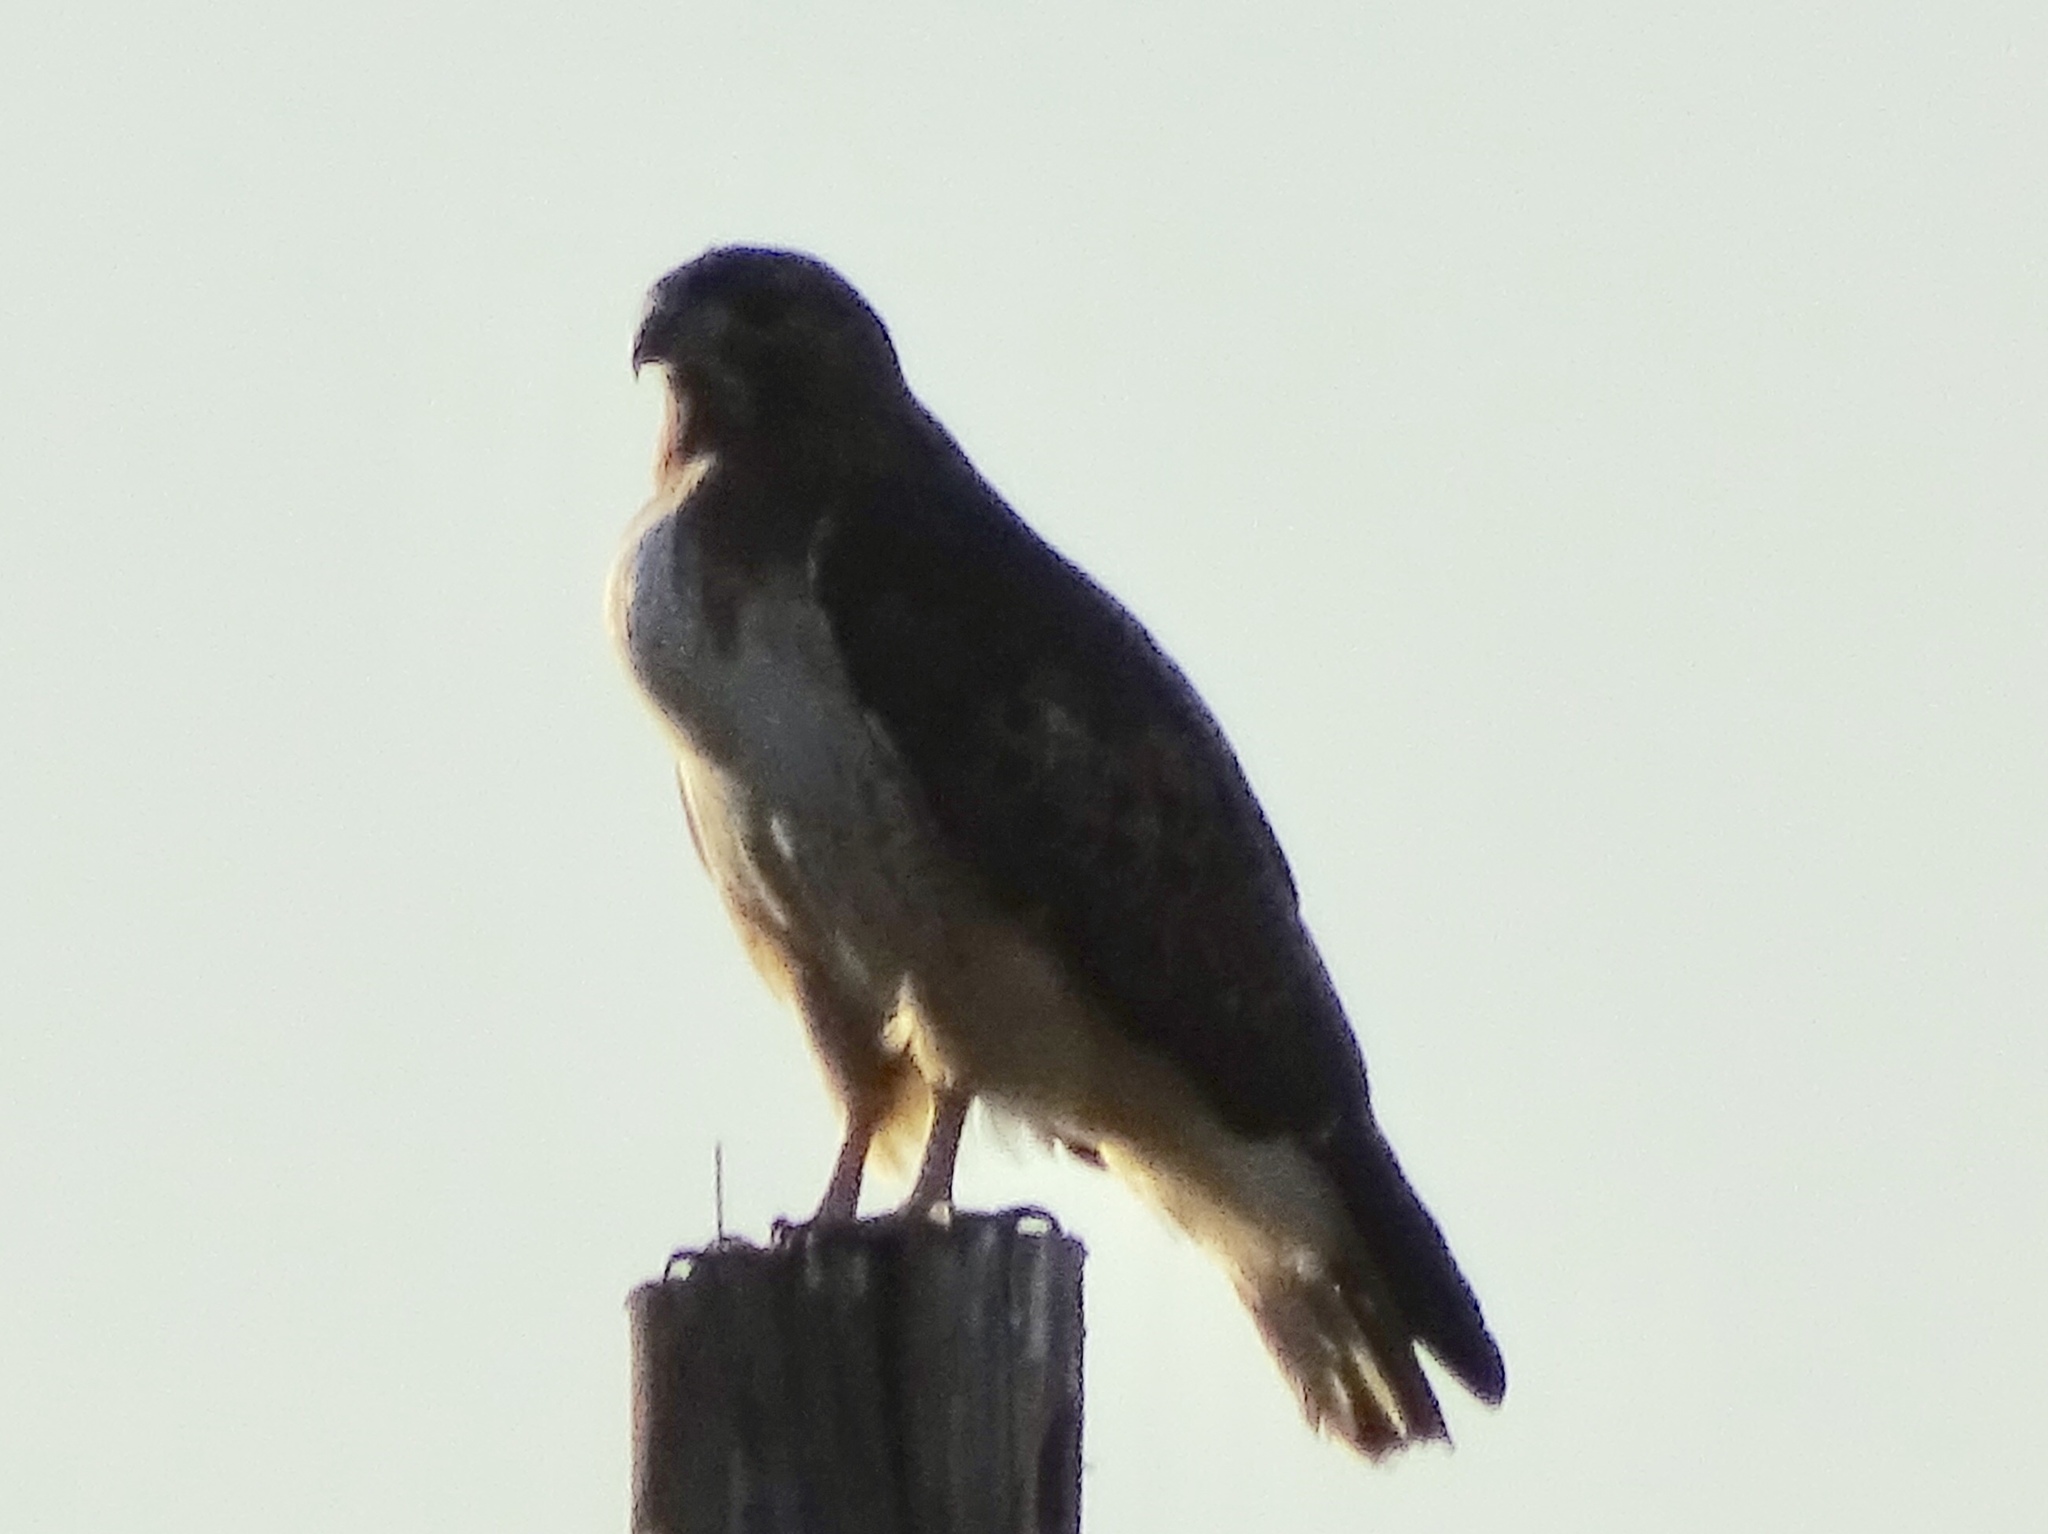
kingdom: Animalia
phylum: Chordata
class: Aves
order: Accipitriformes
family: Accipitridae
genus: Buteo
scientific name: Buteo jamaicensis
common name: Red-tailed hawk
